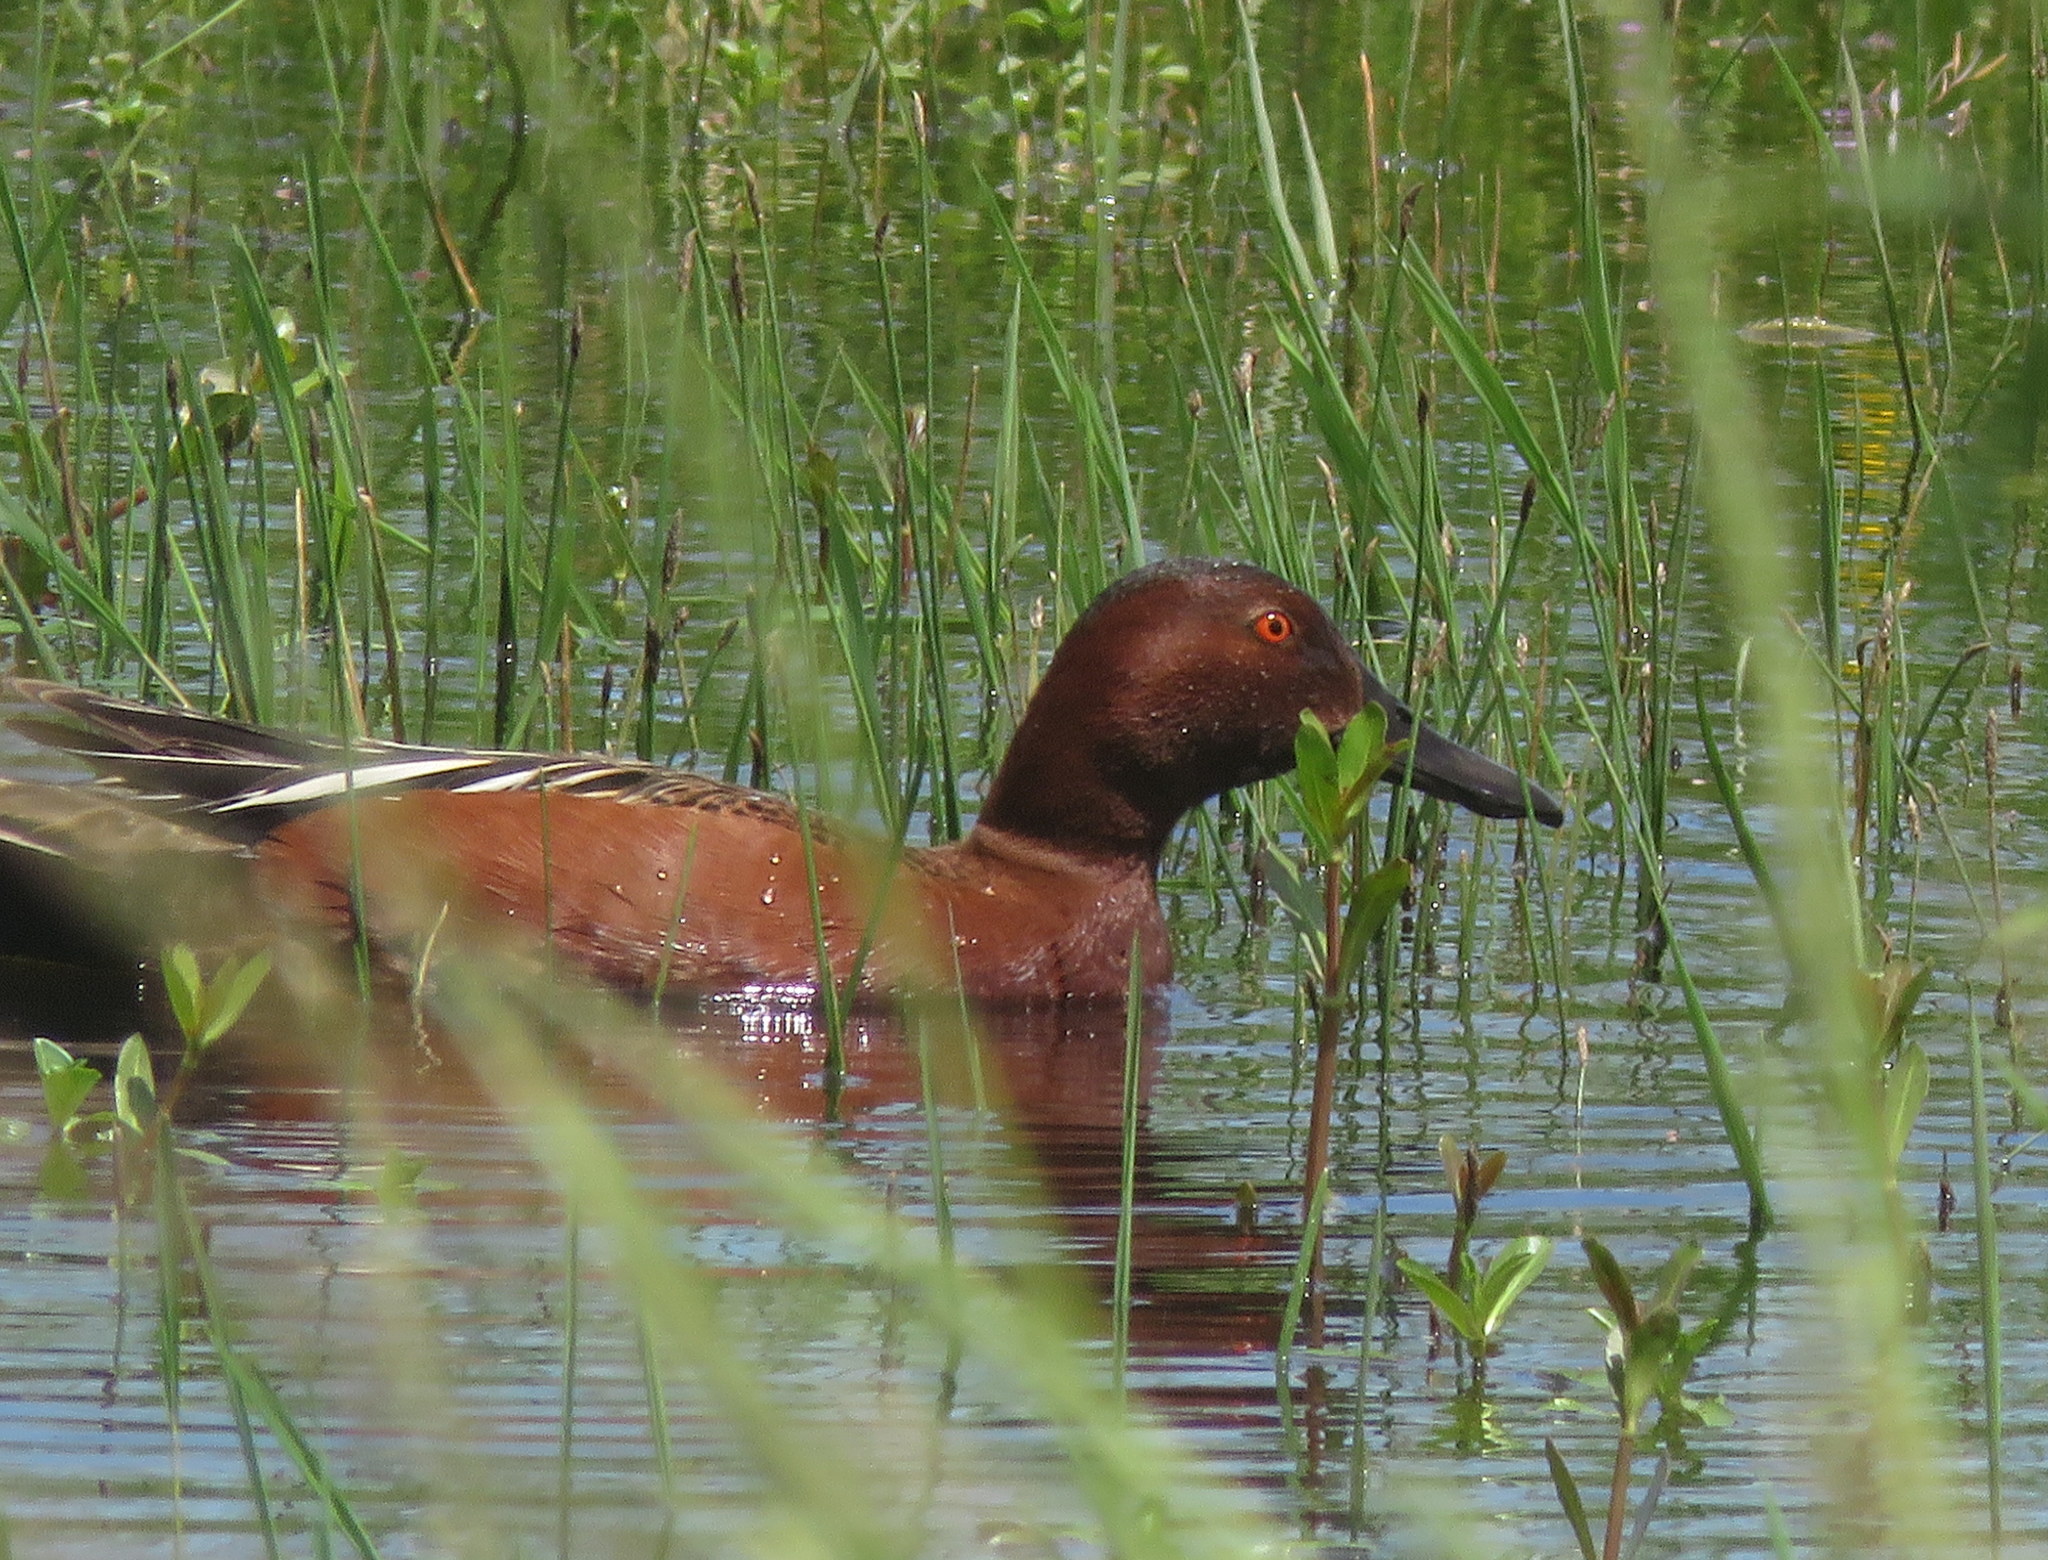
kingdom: Animalia
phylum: Chordata
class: Aves
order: Anseriformes
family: Anatidae
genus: Spatula
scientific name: Spatula cyanoptera
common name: Cinnamon teal
